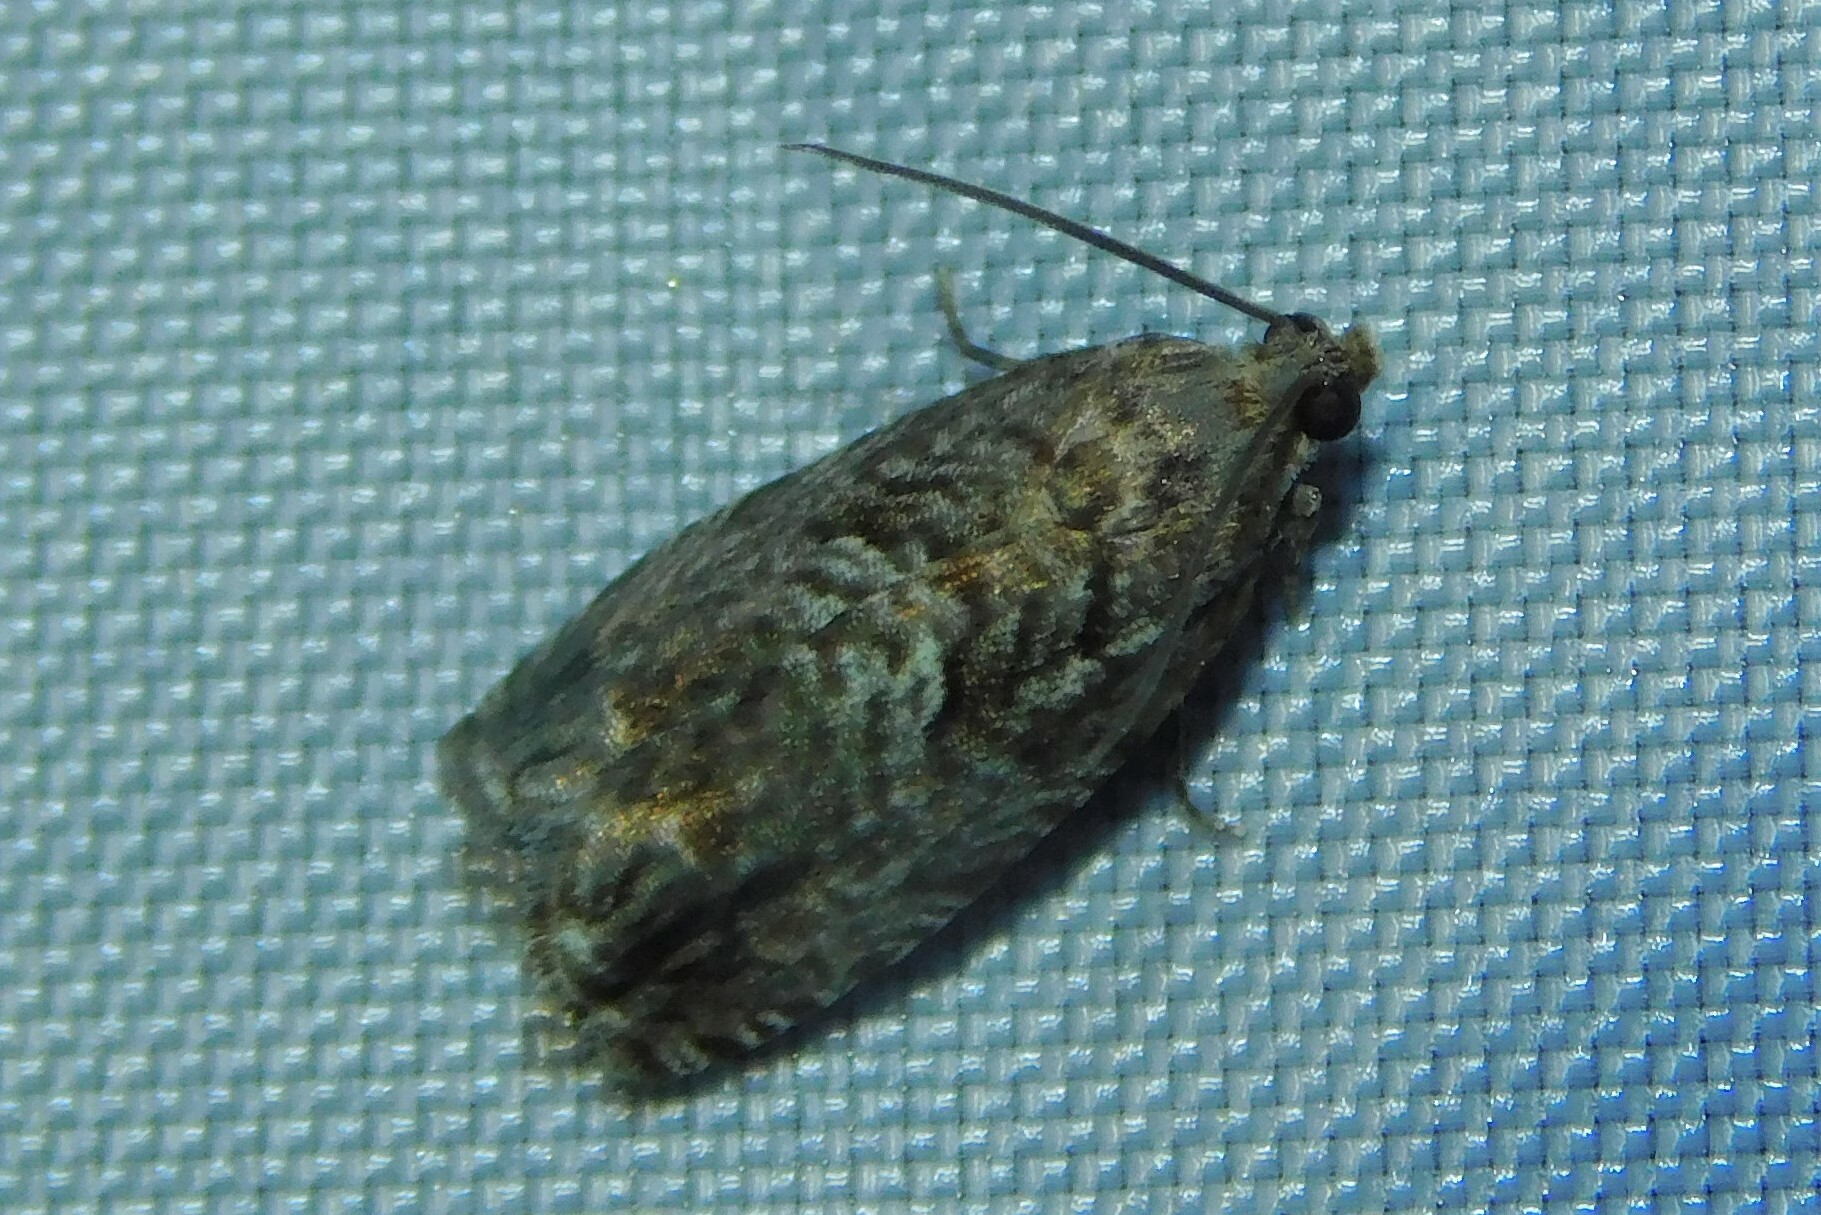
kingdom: Animalia
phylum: Arthropoda
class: Insecta
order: Lepidoptera
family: Tortricidae
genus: Cydia
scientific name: Cydia fagiglandana
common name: Large beech piercer
